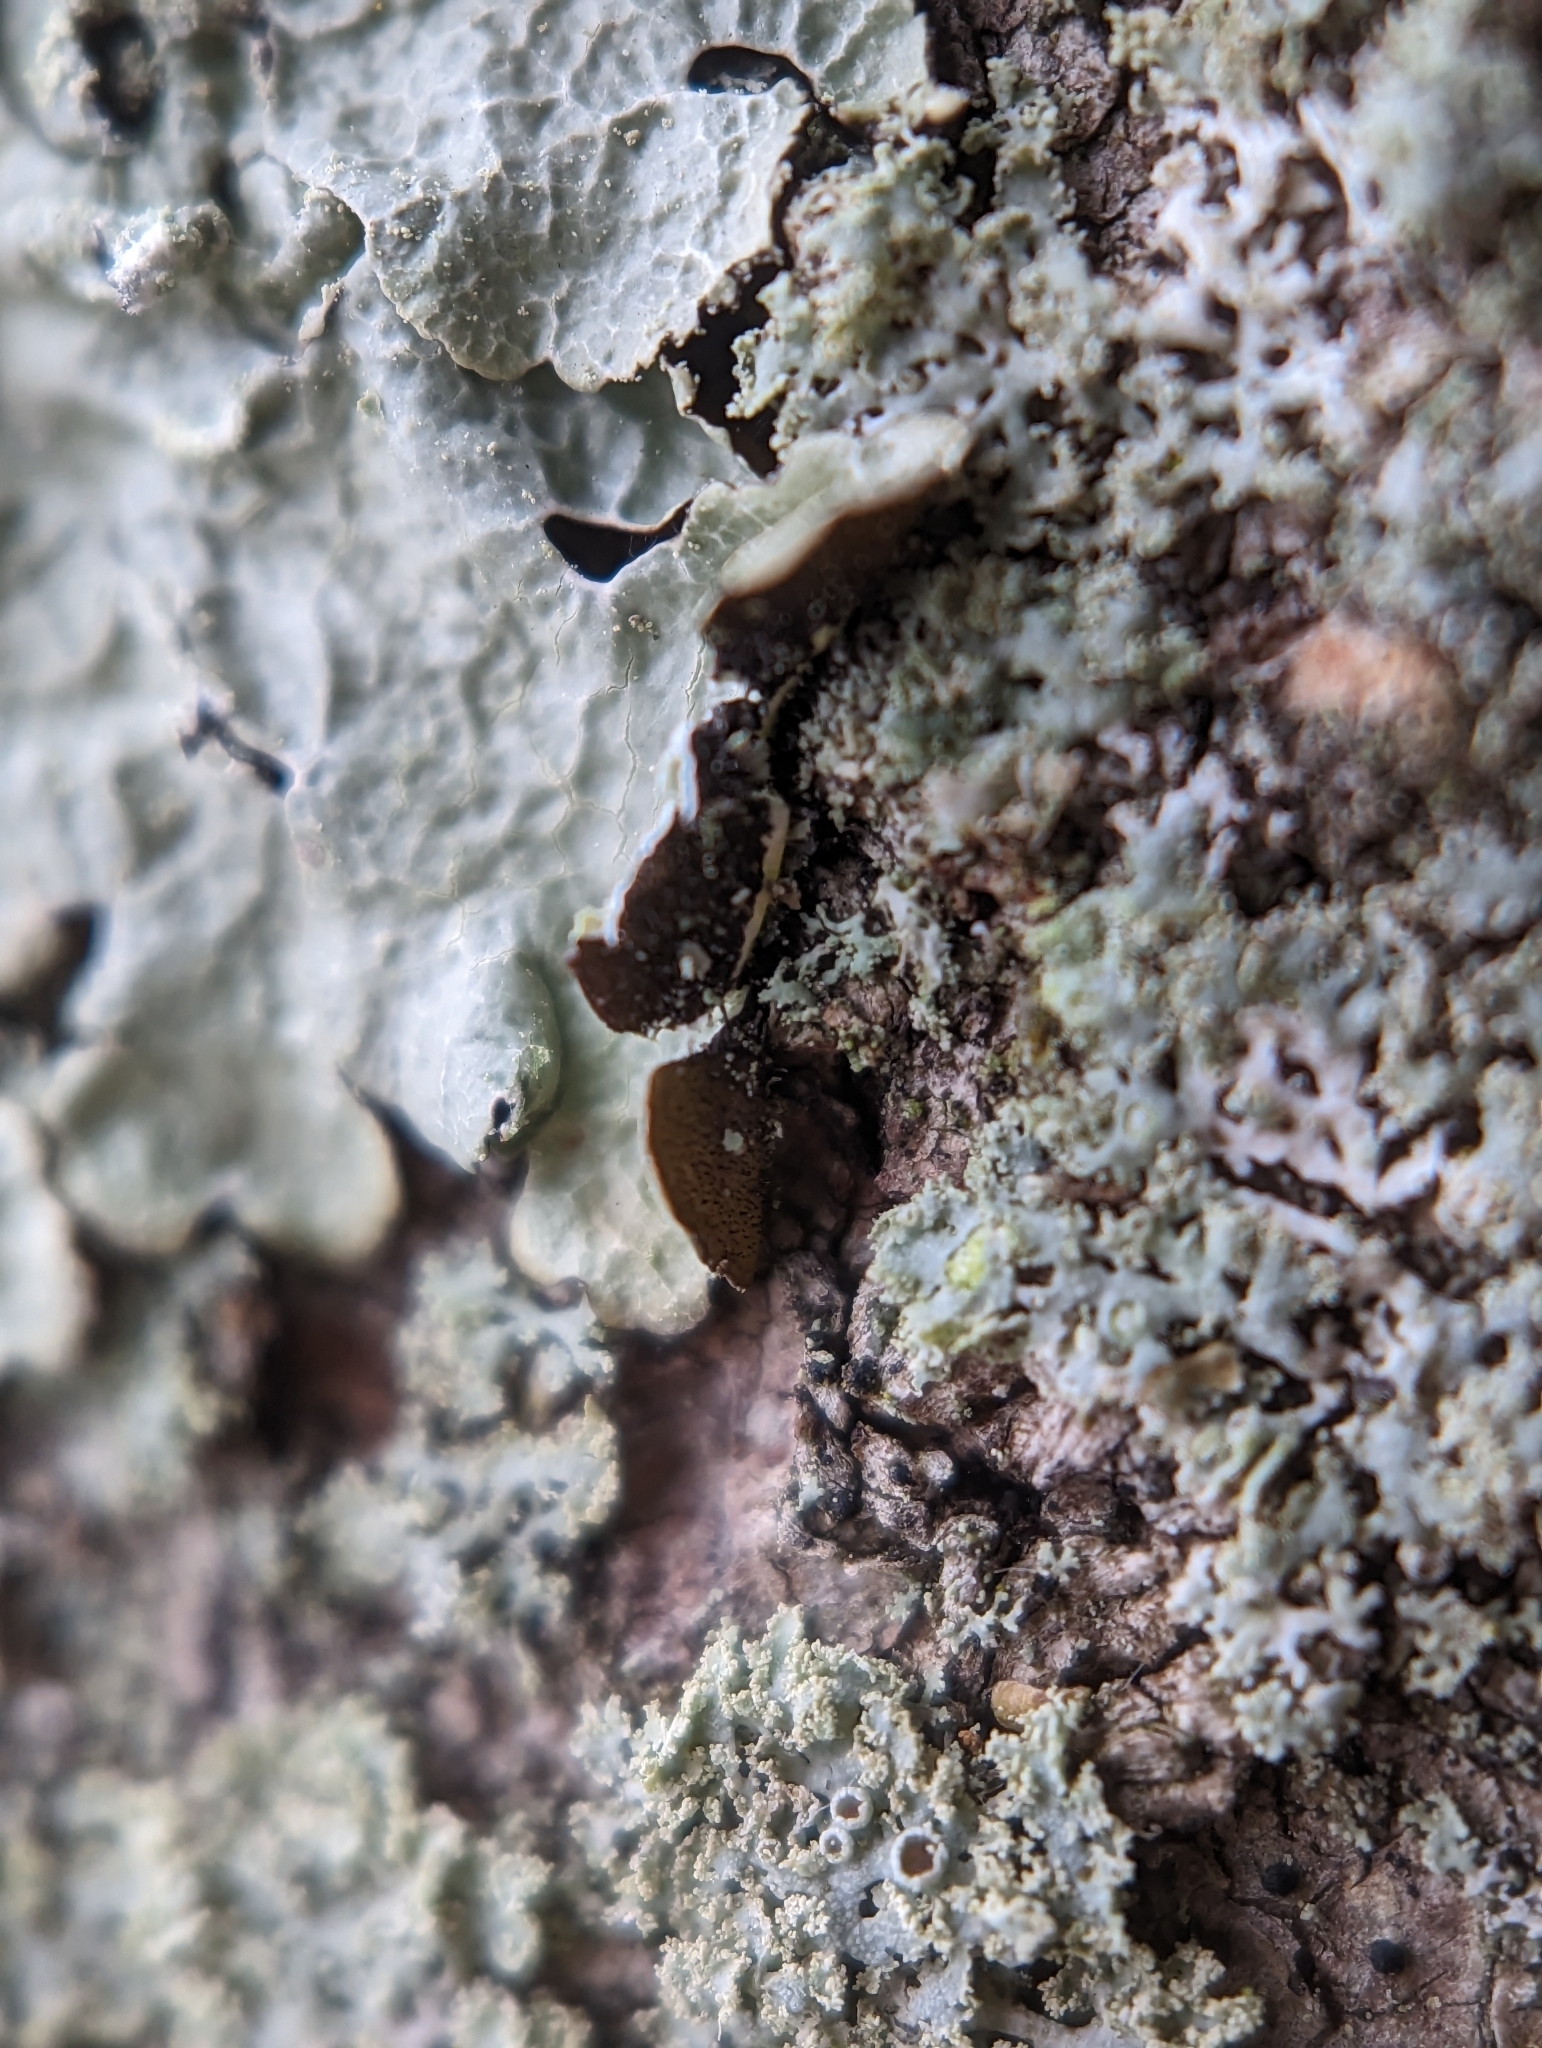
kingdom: Fungi
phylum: Ascomycota
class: Lecanoromycetes
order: Lecanorales
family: Parmeliaceae
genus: Crespoa
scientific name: Crespoa crozalsiana
